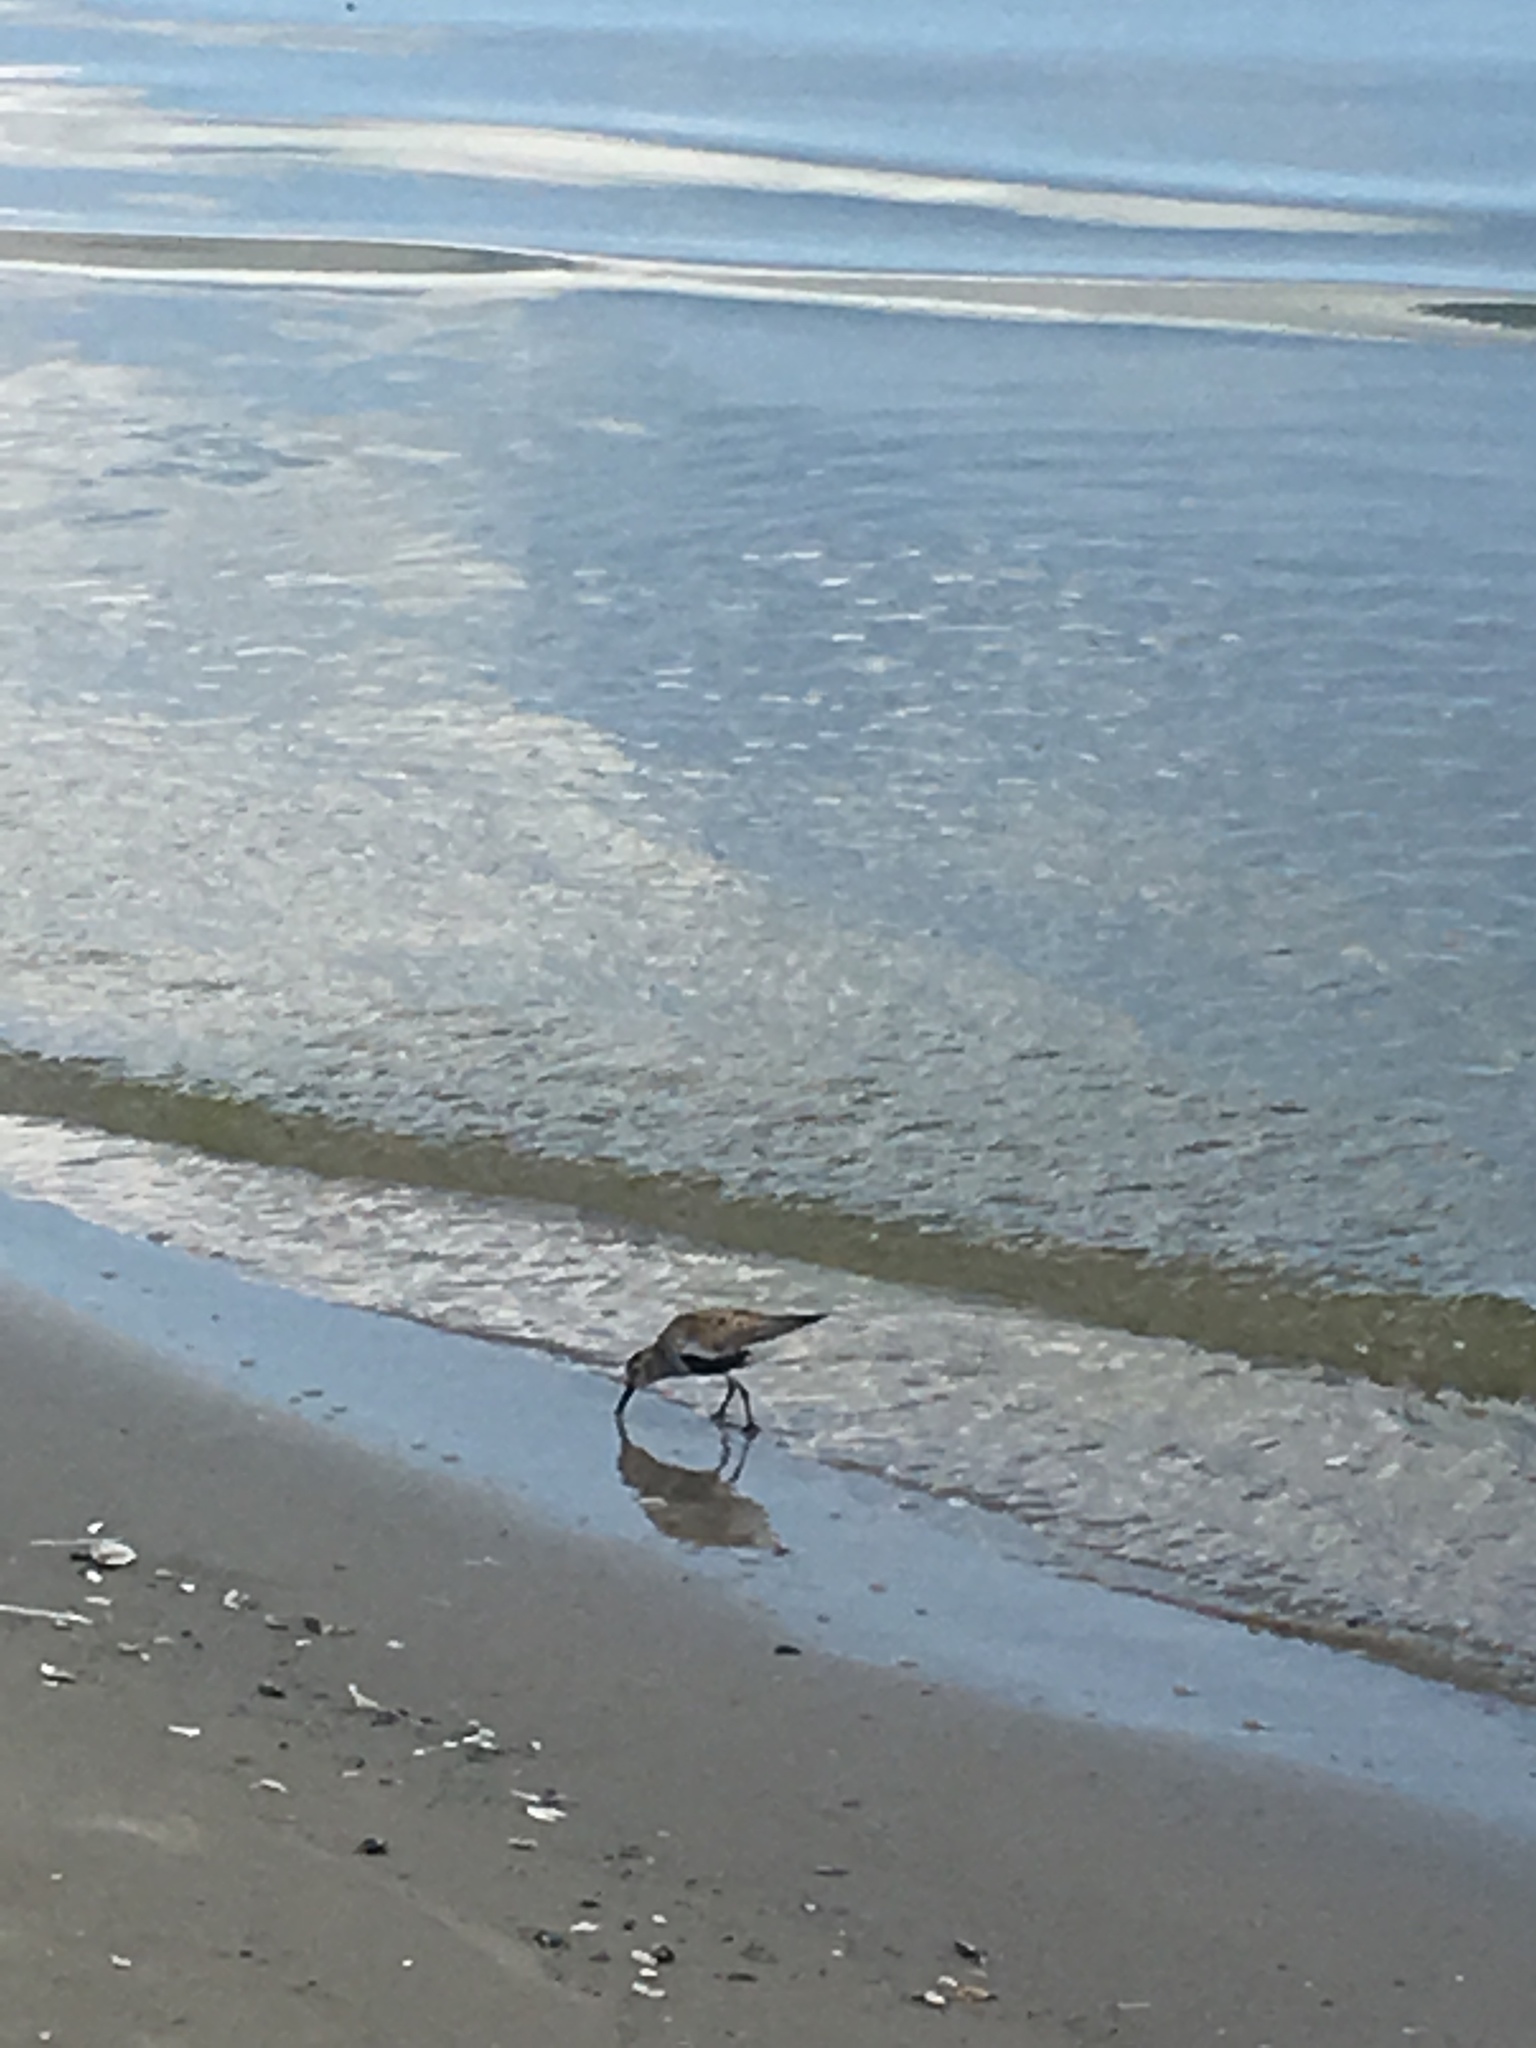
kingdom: Animalia
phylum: Chordata
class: Aves
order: Charadriiformes
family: Scolopacidae
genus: Calidris
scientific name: Calidris alpina
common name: Dunlin
